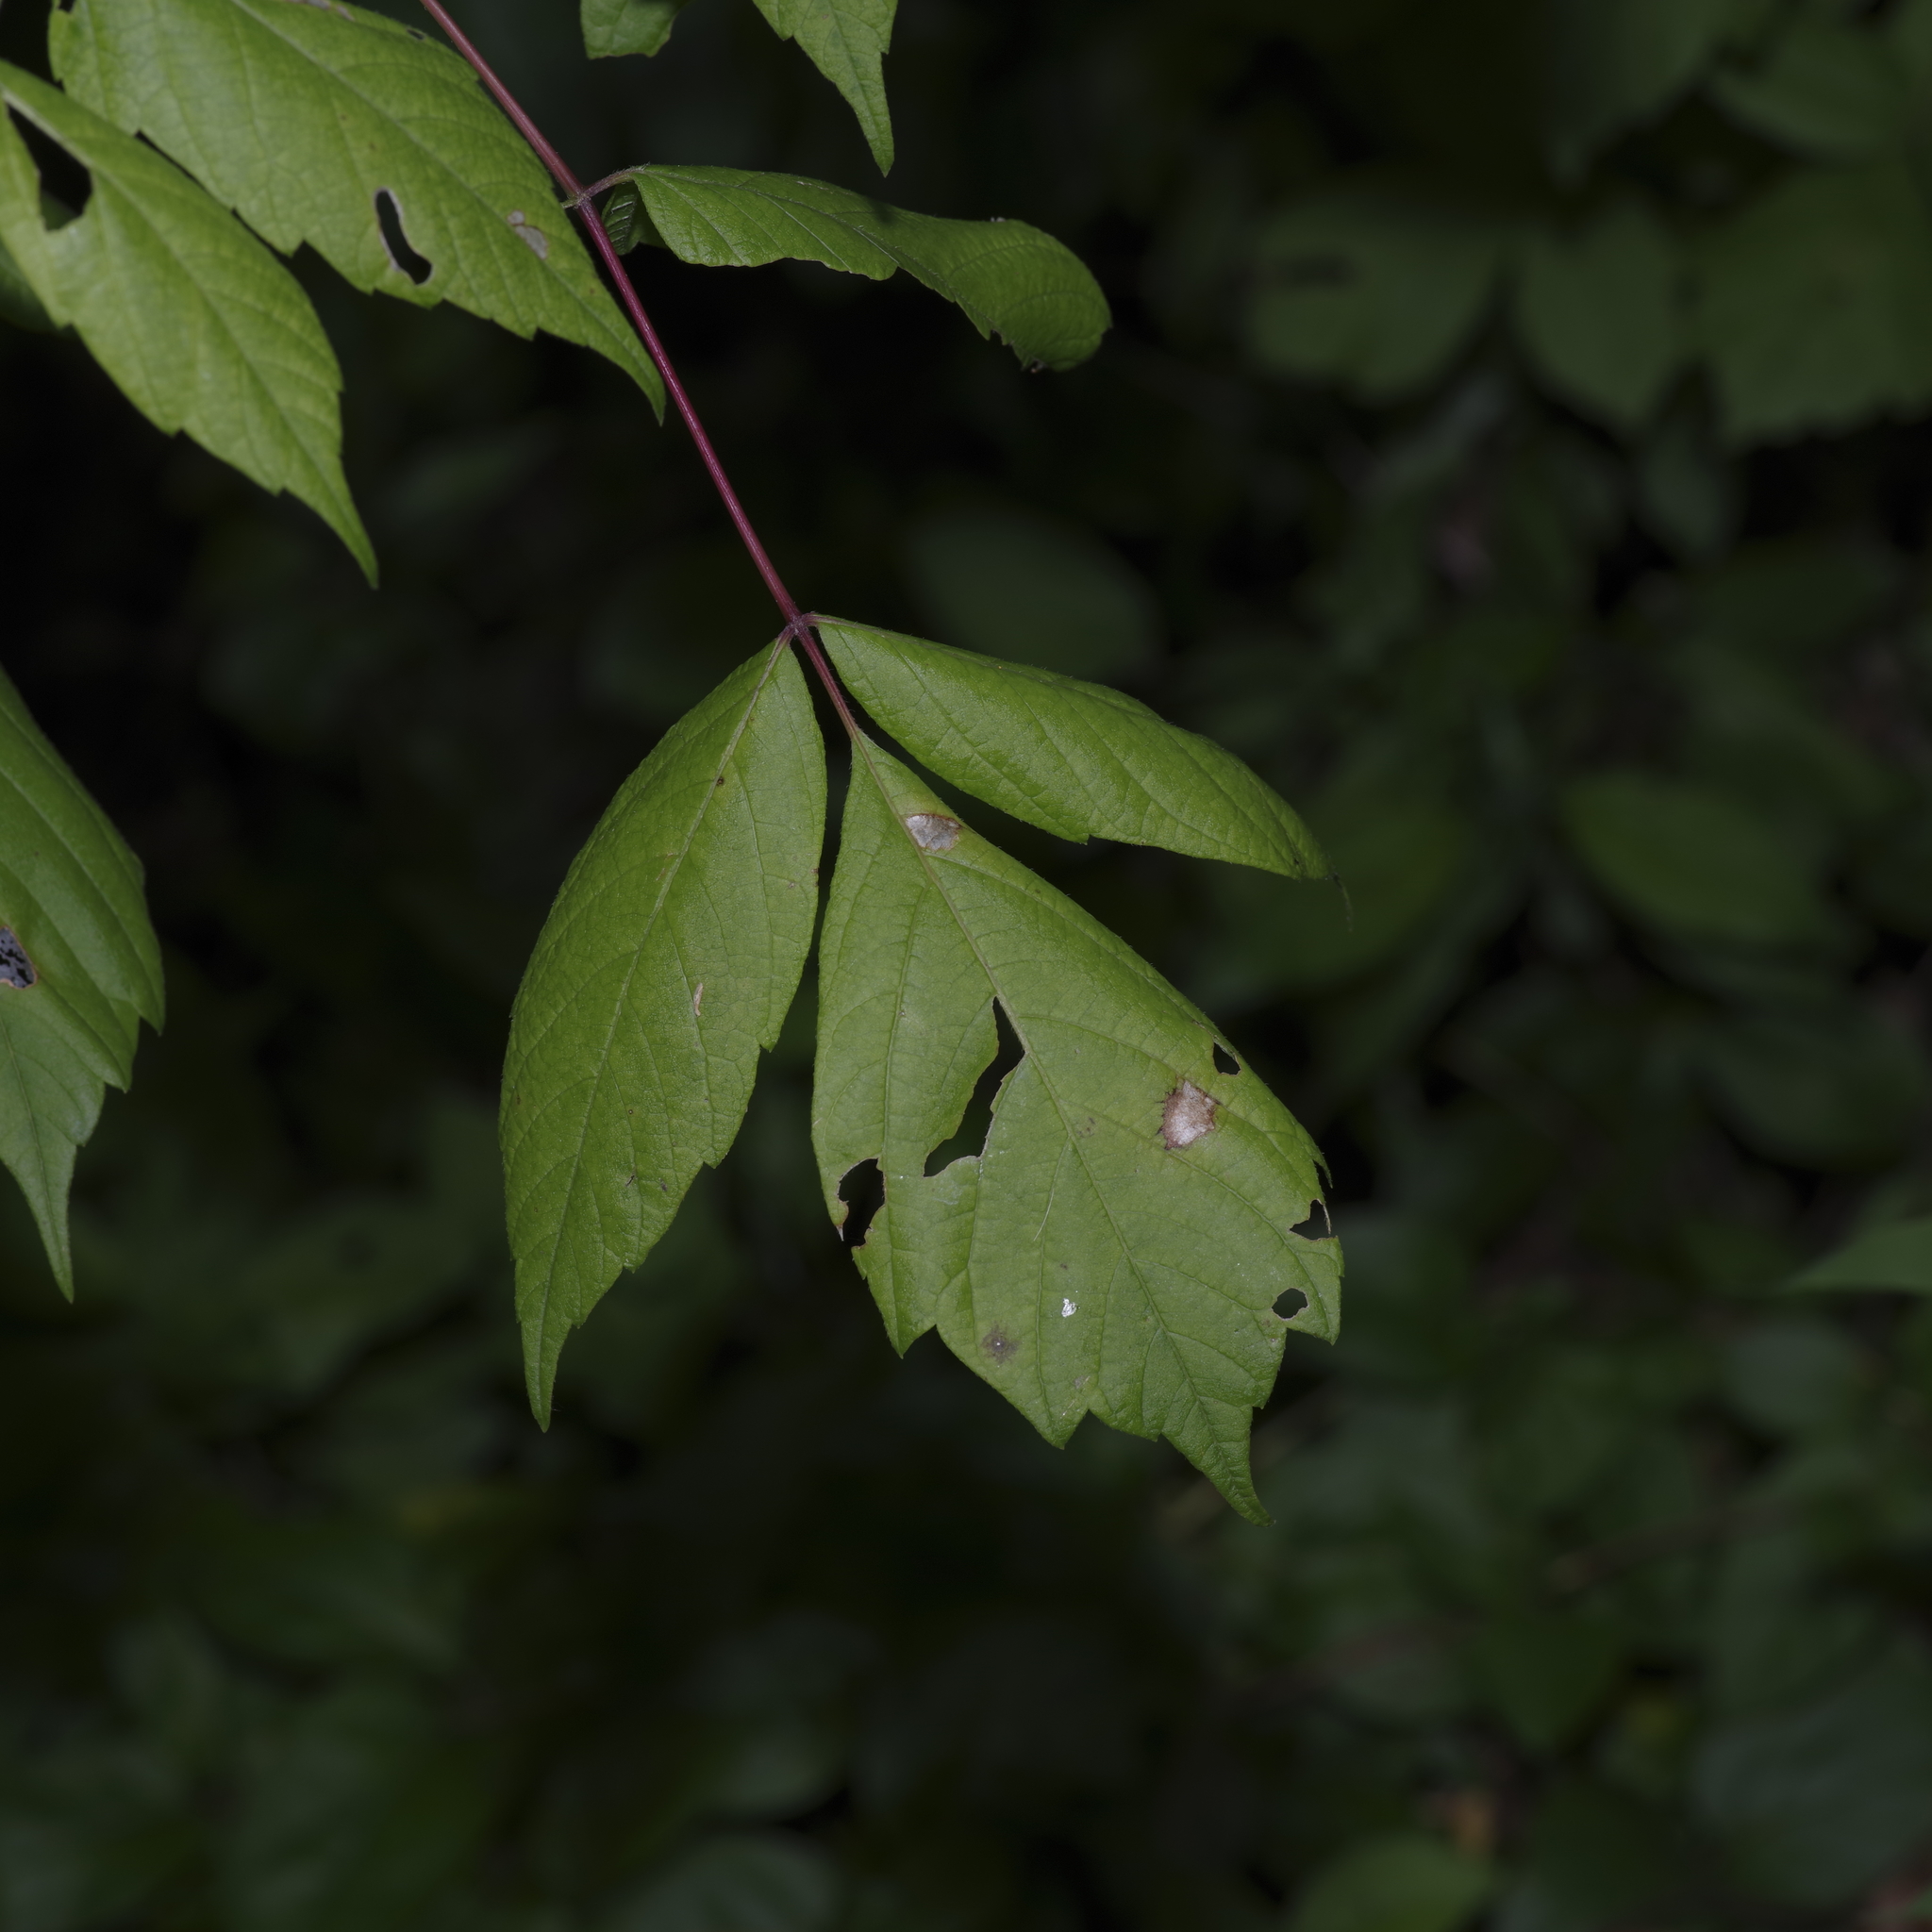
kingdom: Plantae
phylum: Tracheophyta
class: Magnoliopsida
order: Sapindales
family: Sapindaceae
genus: Acer
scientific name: Acer negundo
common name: Ashleaf maple
